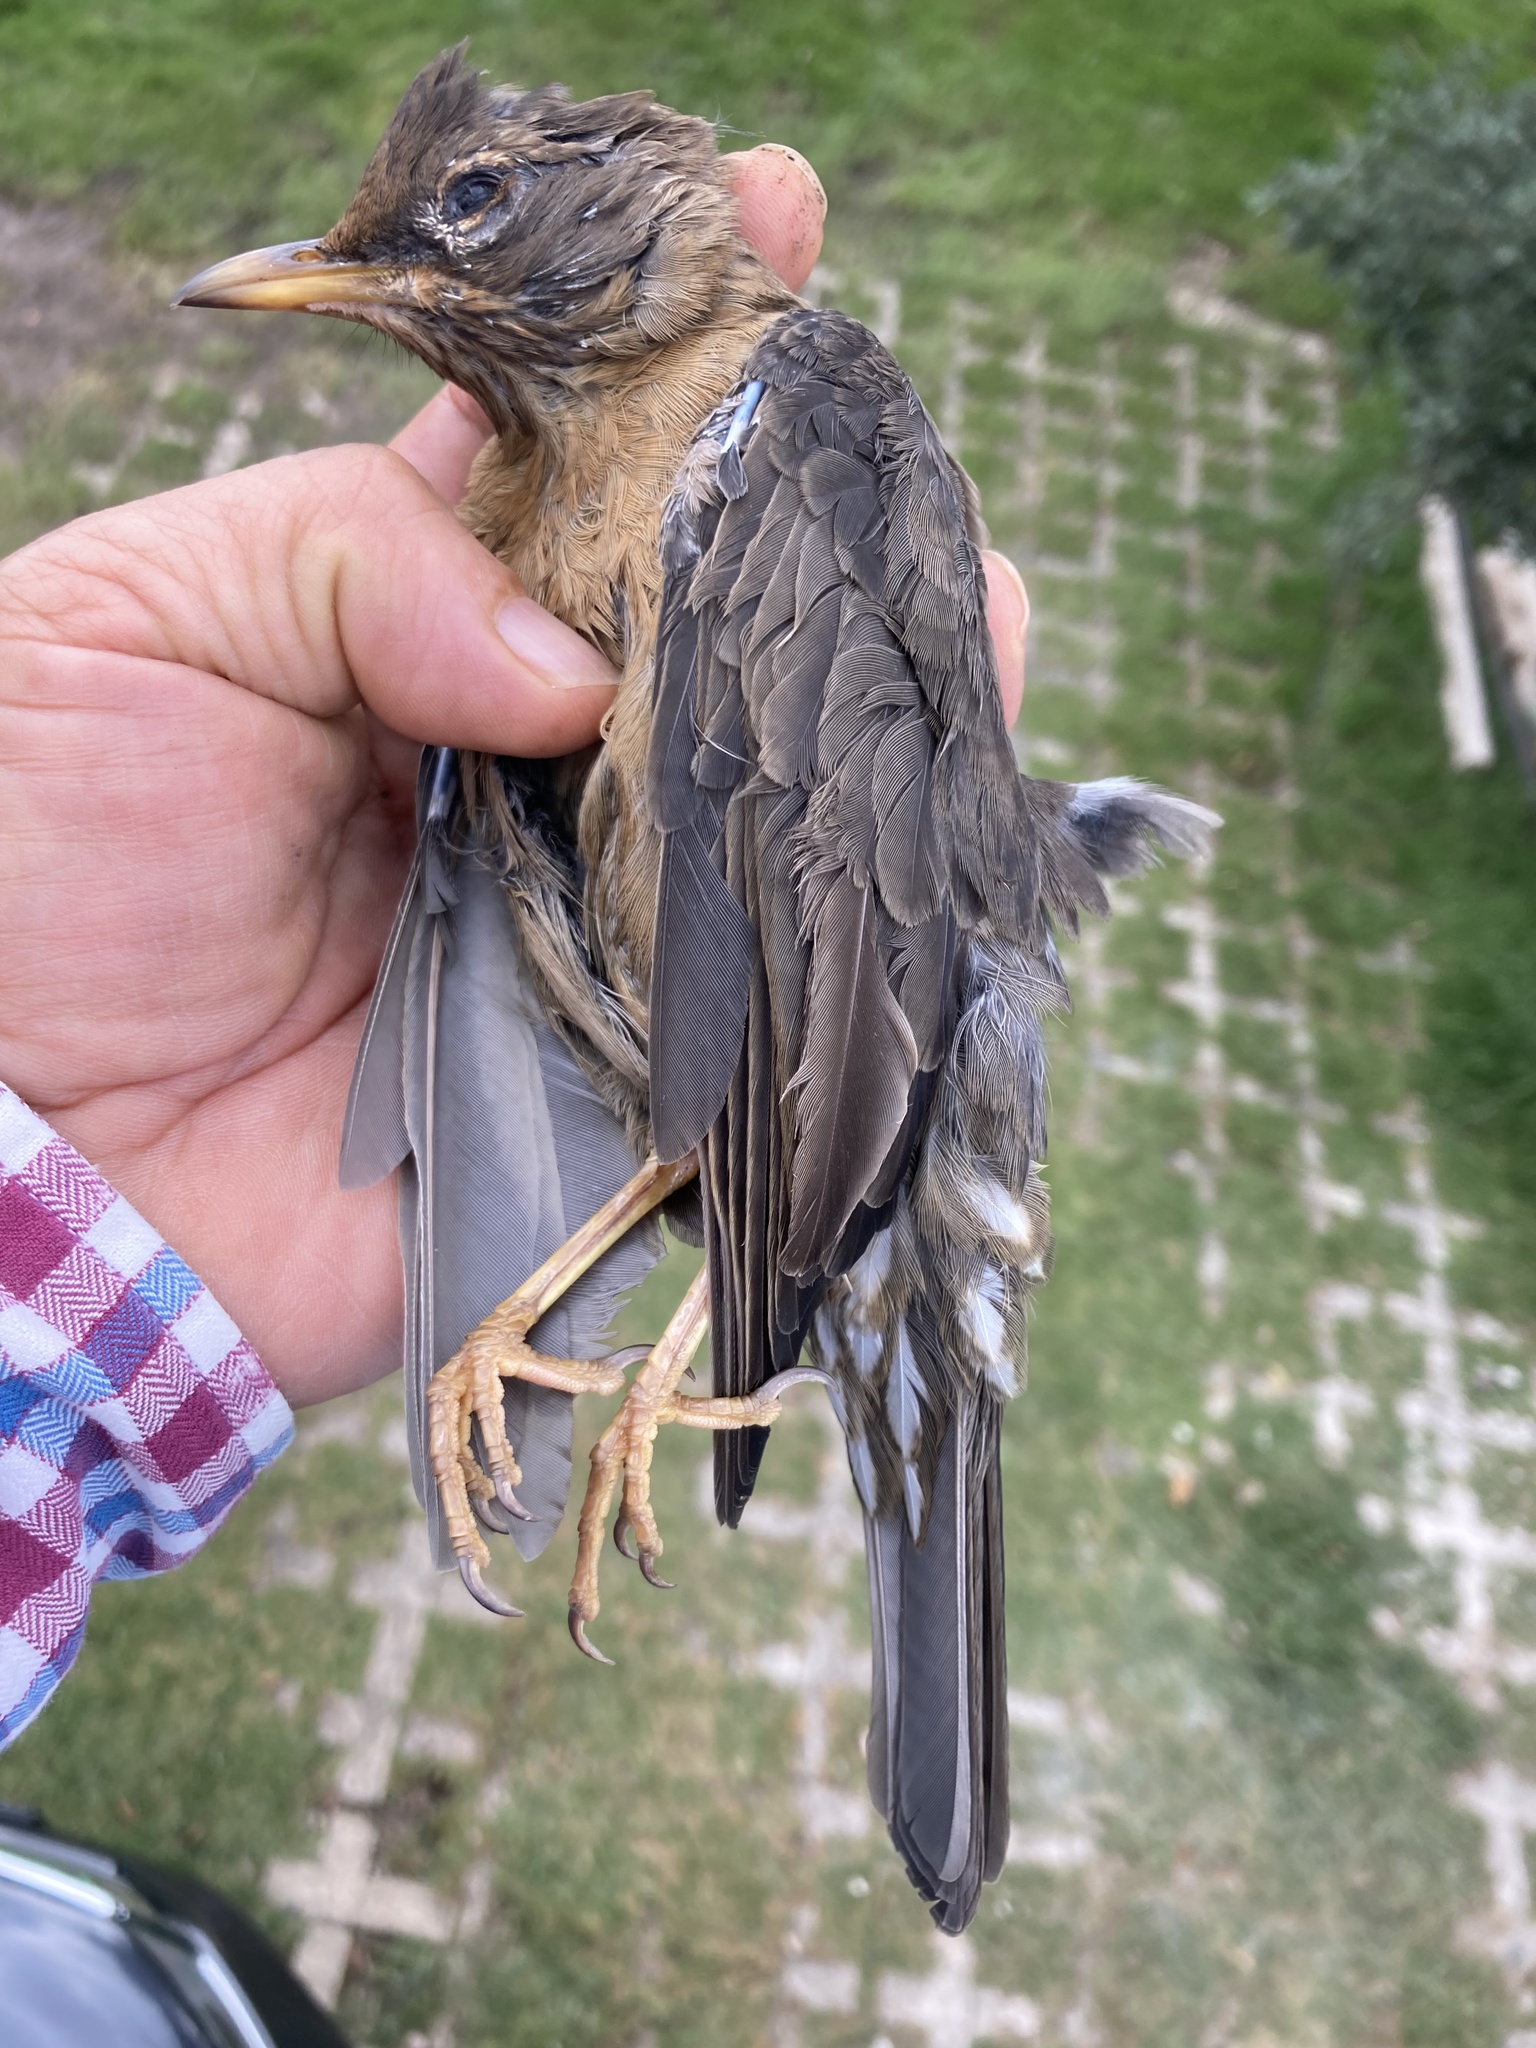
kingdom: Animalia
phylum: Chordata
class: Aves
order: Passeriformes
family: Turdidae
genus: Turdus
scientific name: Turdus rufitorques
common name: Rufous-collared thrush
